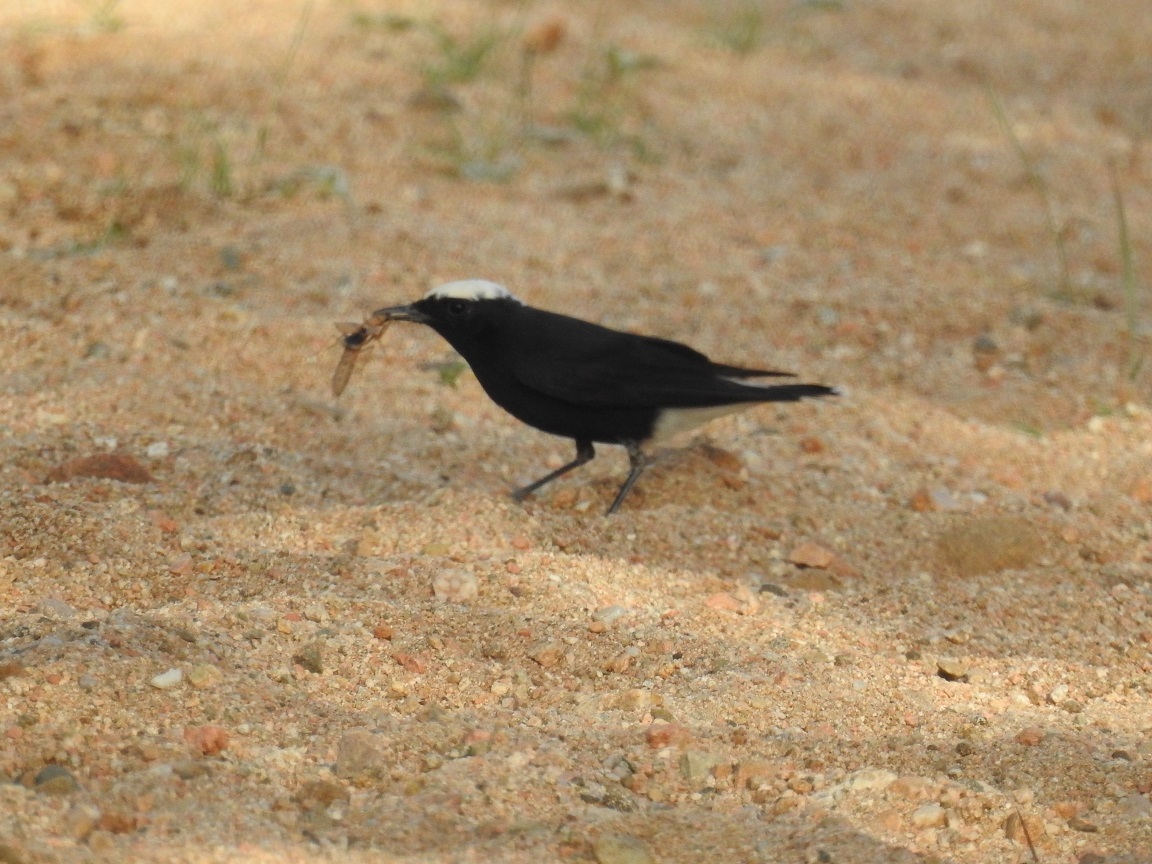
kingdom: Animalia
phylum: Chordata
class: Aves
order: Passeriformes
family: Muscicapidae
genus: Oenanthe
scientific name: Oenanthe leucopyga
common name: White-crowned wheatear
